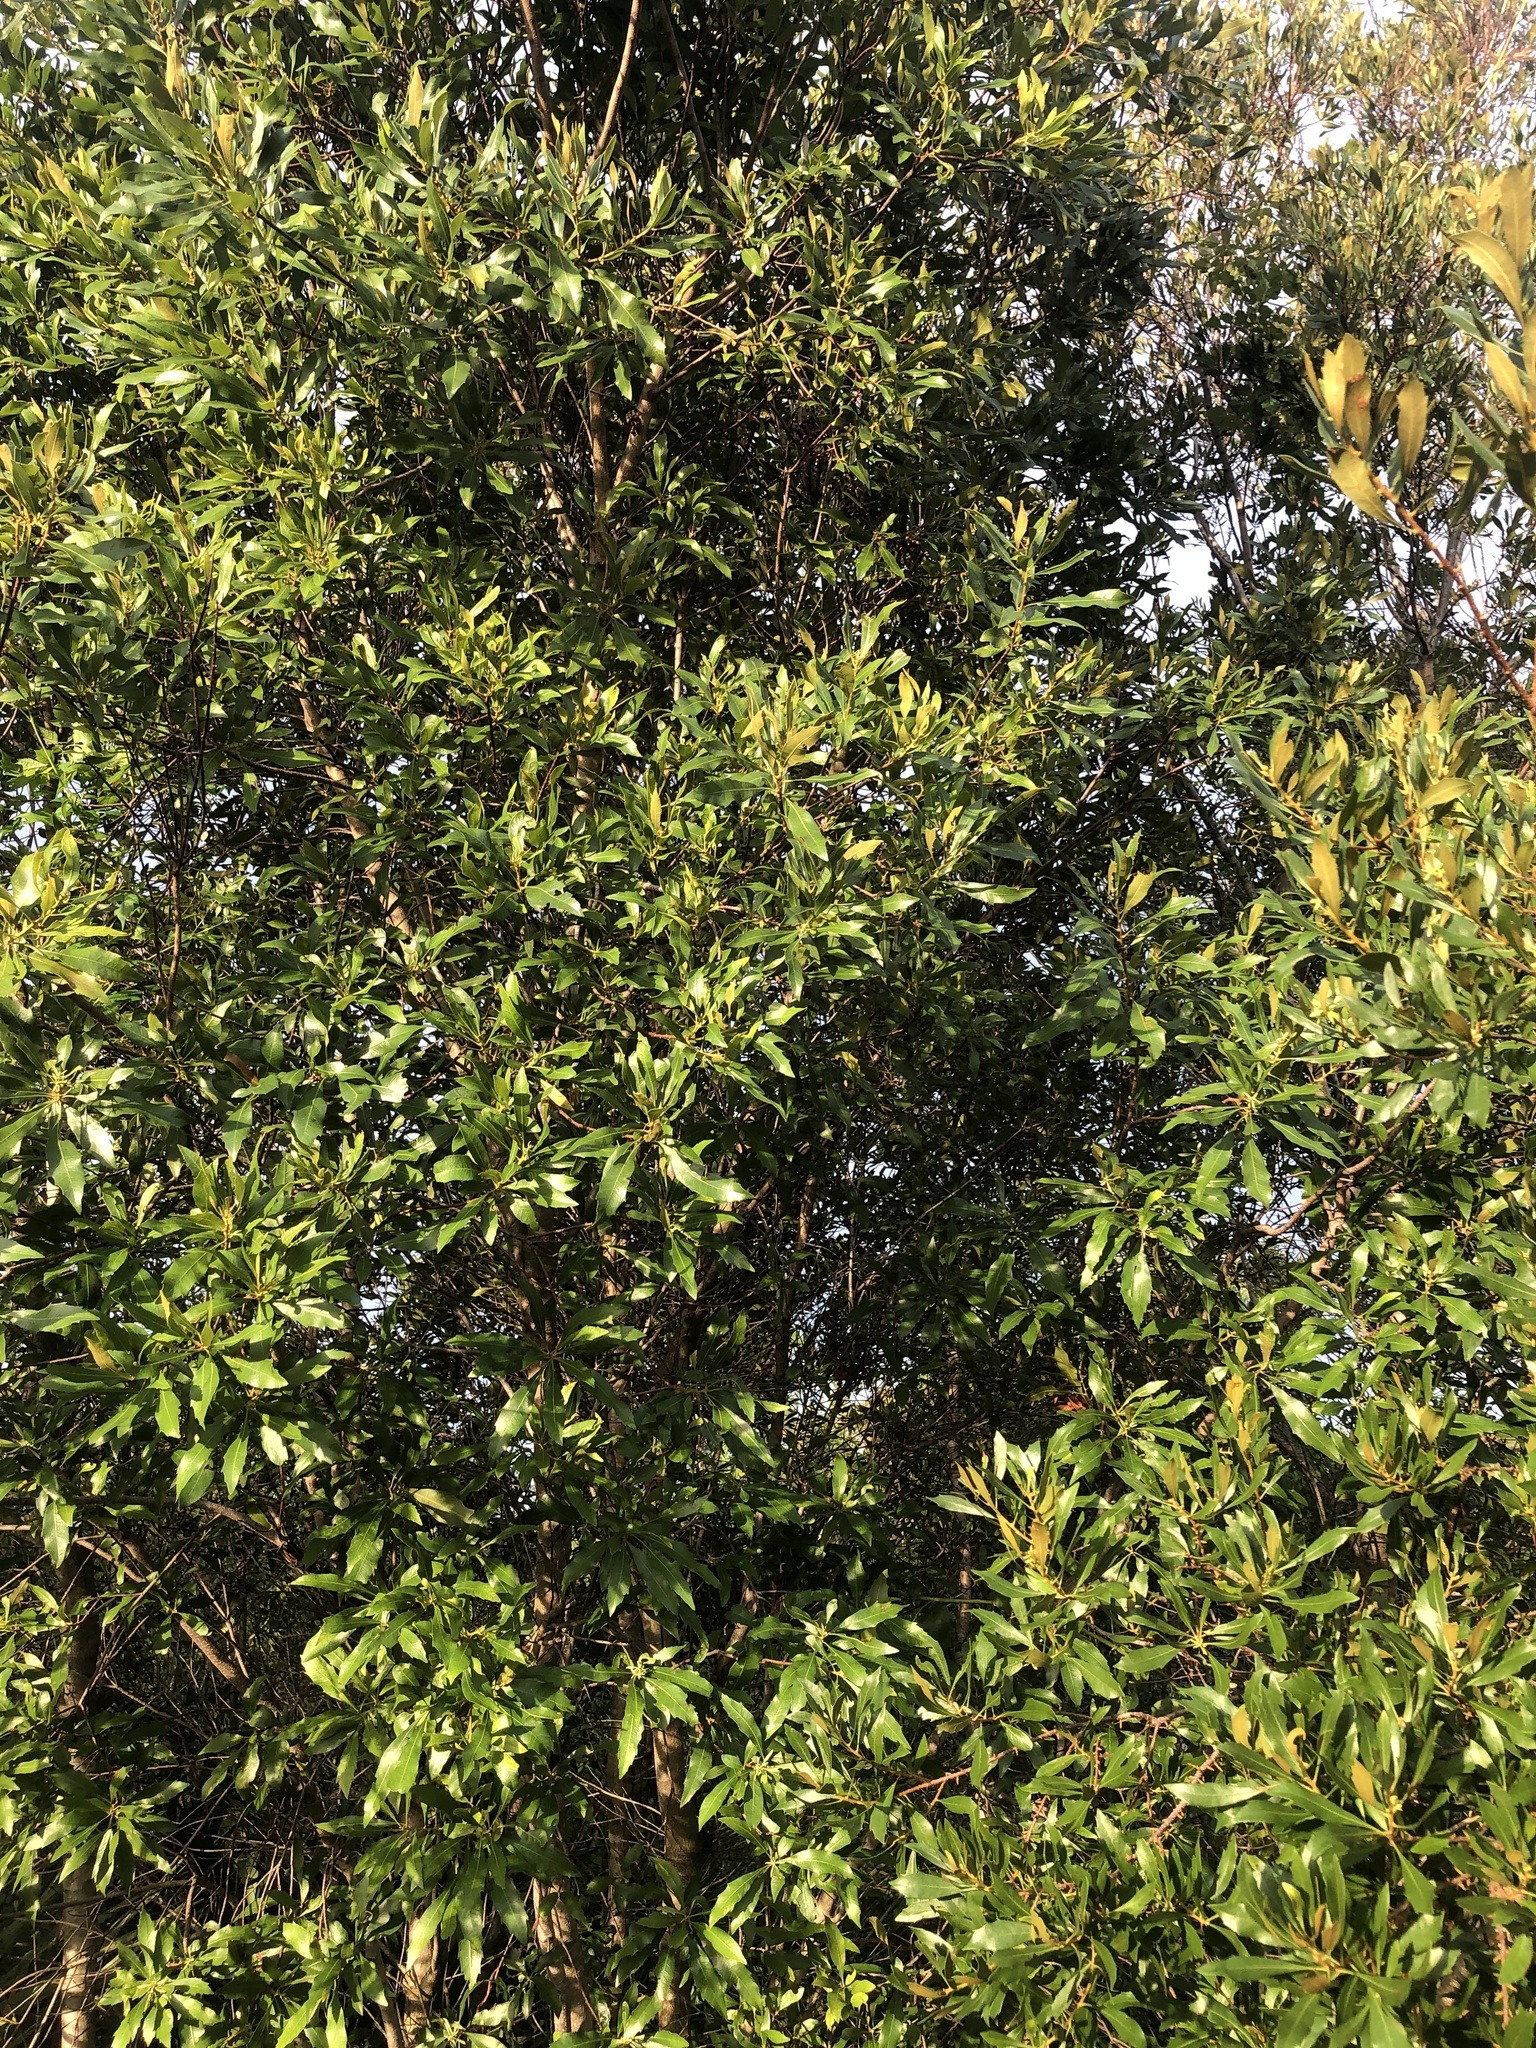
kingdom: Plantae
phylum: Tracheophyta
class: Magnoliopsida
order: Fagales
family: Myricaceae
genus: Morella
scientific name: Morella cerifera
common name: Wax myrtle
